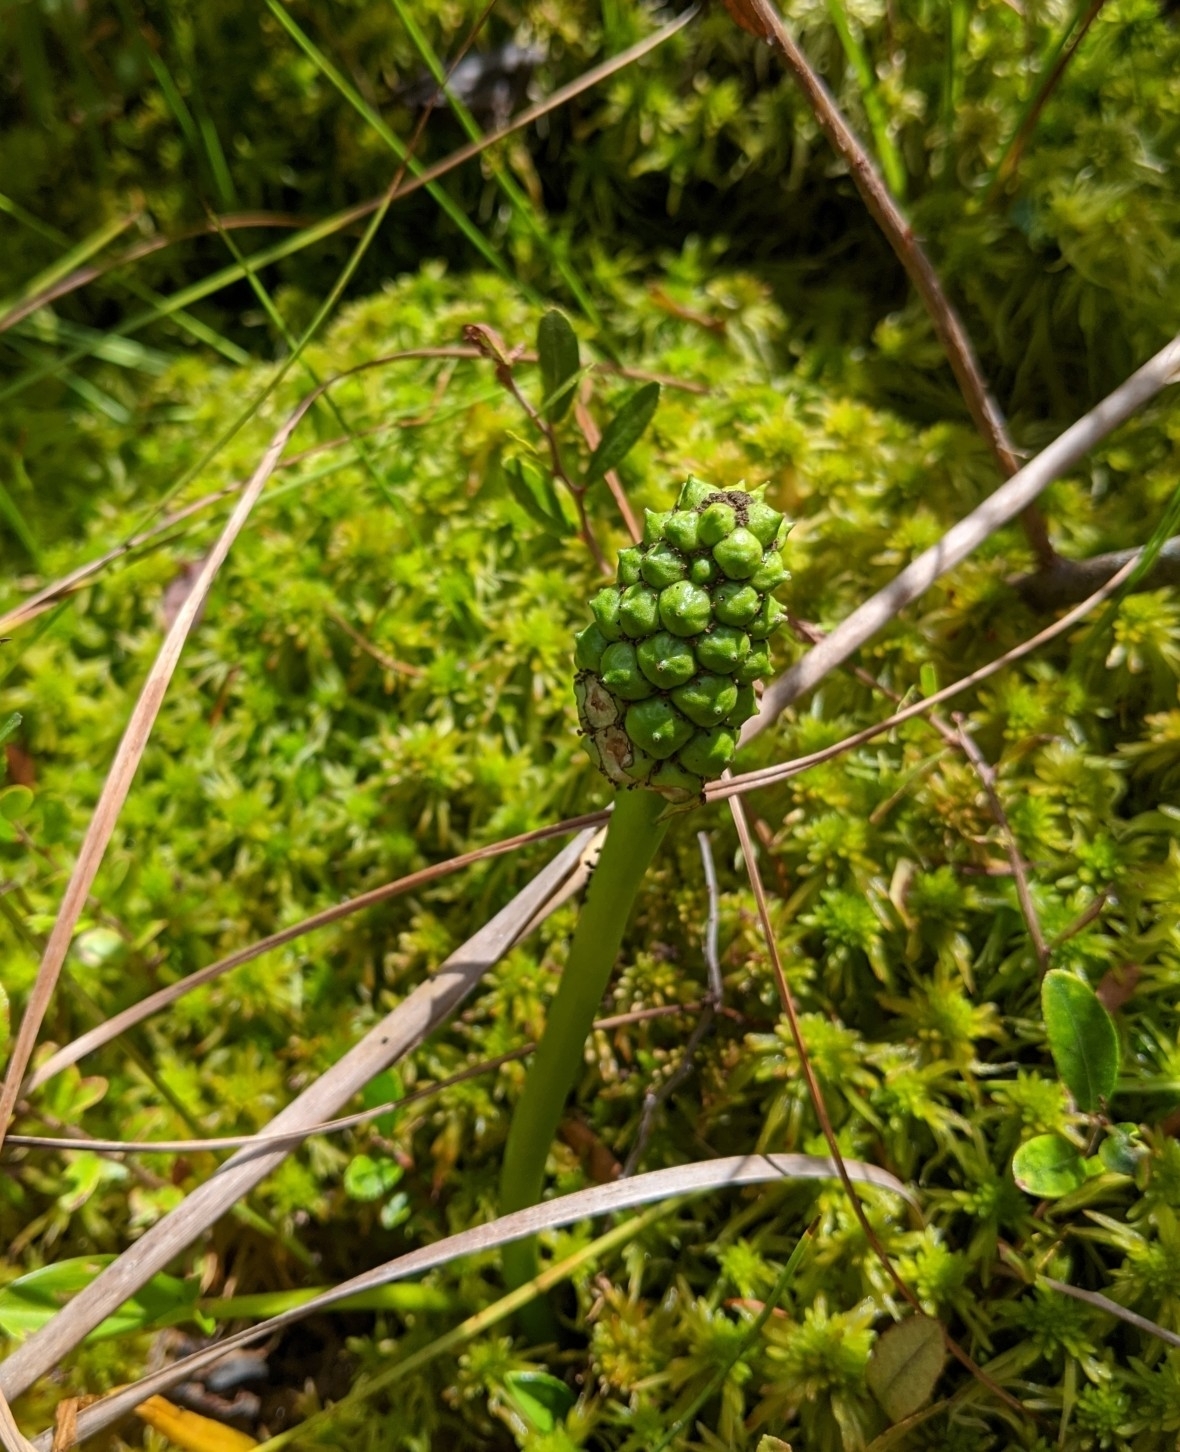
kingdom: Plantae
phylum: Tracheophyta
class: Liliopsida
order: Alismatales
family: Araceae
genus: Calla
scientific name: Calla palustris
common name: Bog arum
